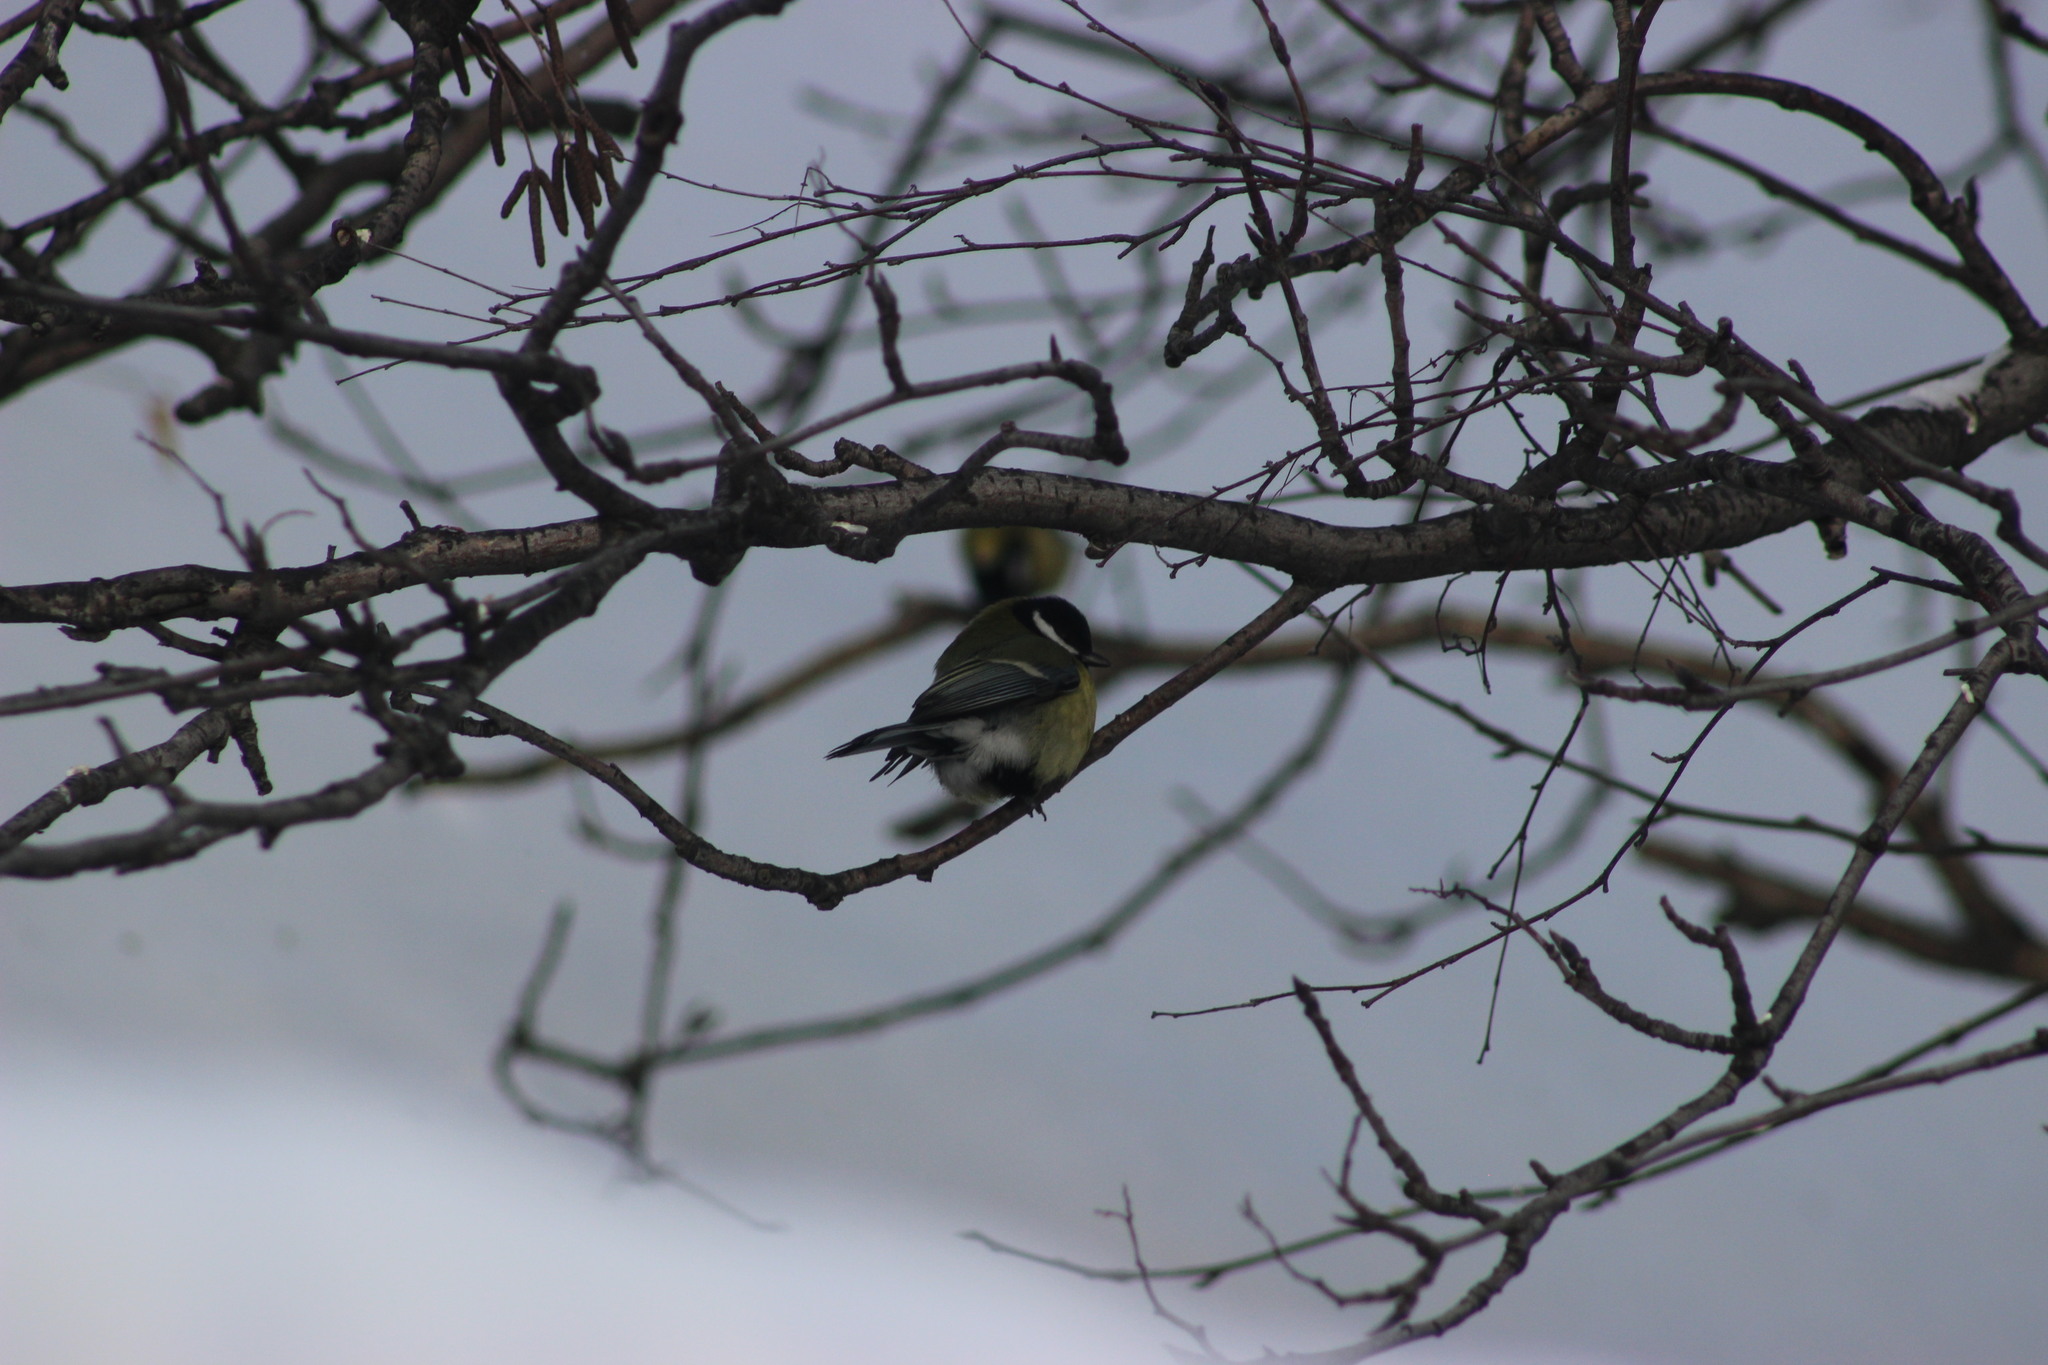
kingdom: Animalia
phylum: Chordata
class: Aves
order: Passeriformes
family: Paridae
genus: Parus
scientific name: Parus major
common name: Great tit
